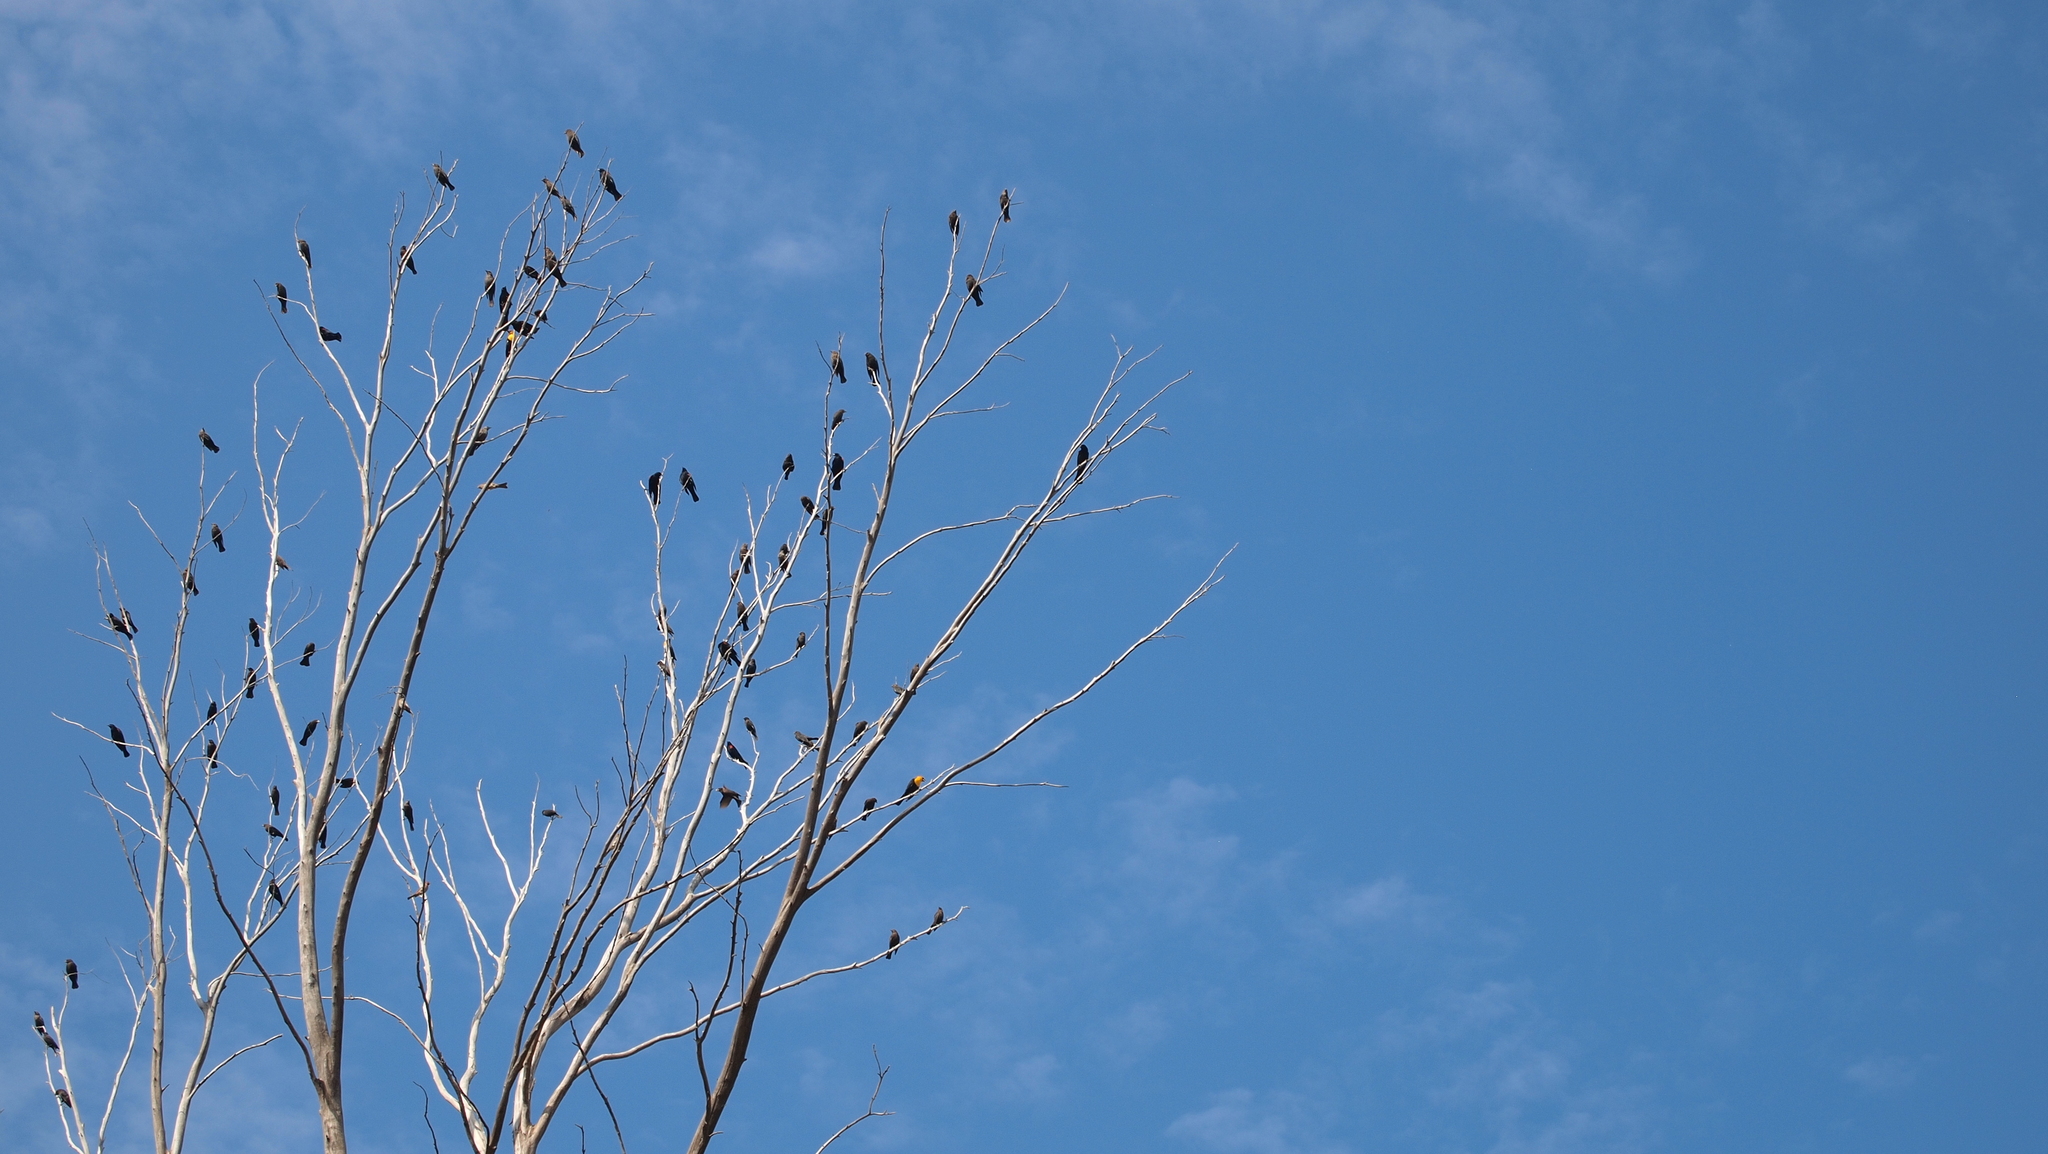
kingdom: Animalia
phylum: Chordata
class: Aves
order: Passeriformes
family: Icteridae
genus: Xanthocephalus
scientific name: Xanthocephalus xanthocephalus
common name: Yellow-headed blackbird
